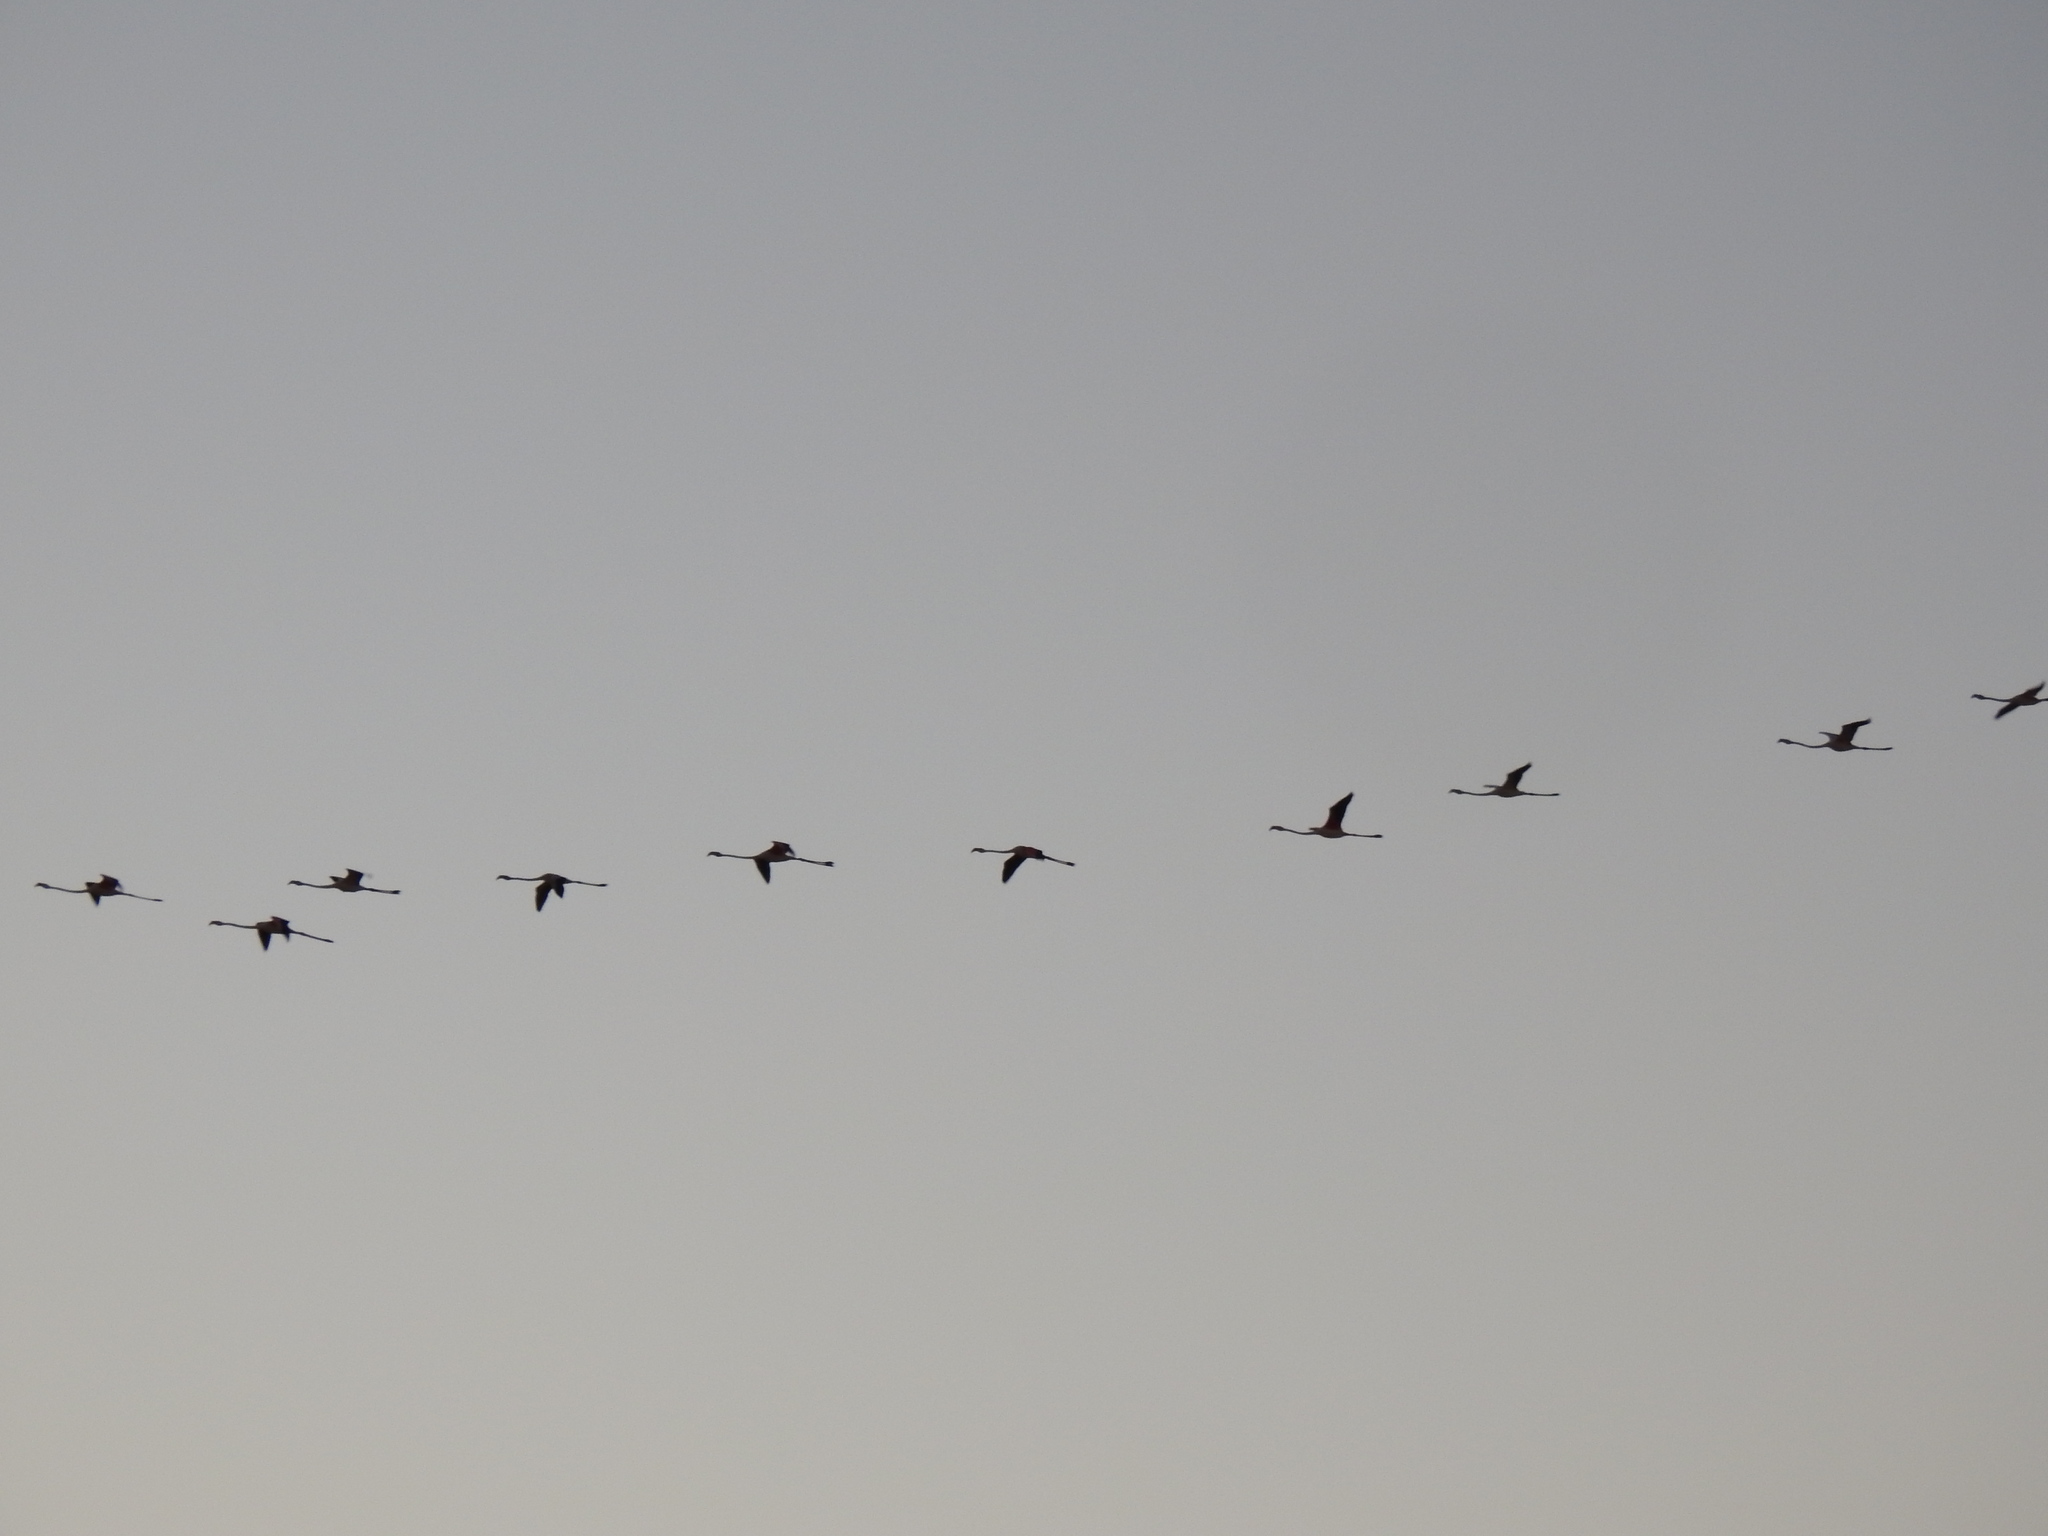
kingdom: Animalia
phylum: Chordata
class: Aves
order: Phoenicopteriformes
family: Phoenicopteridae
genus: Phoenicopterus
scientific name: Phoenicopterus roseus
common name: Greater flamingo
